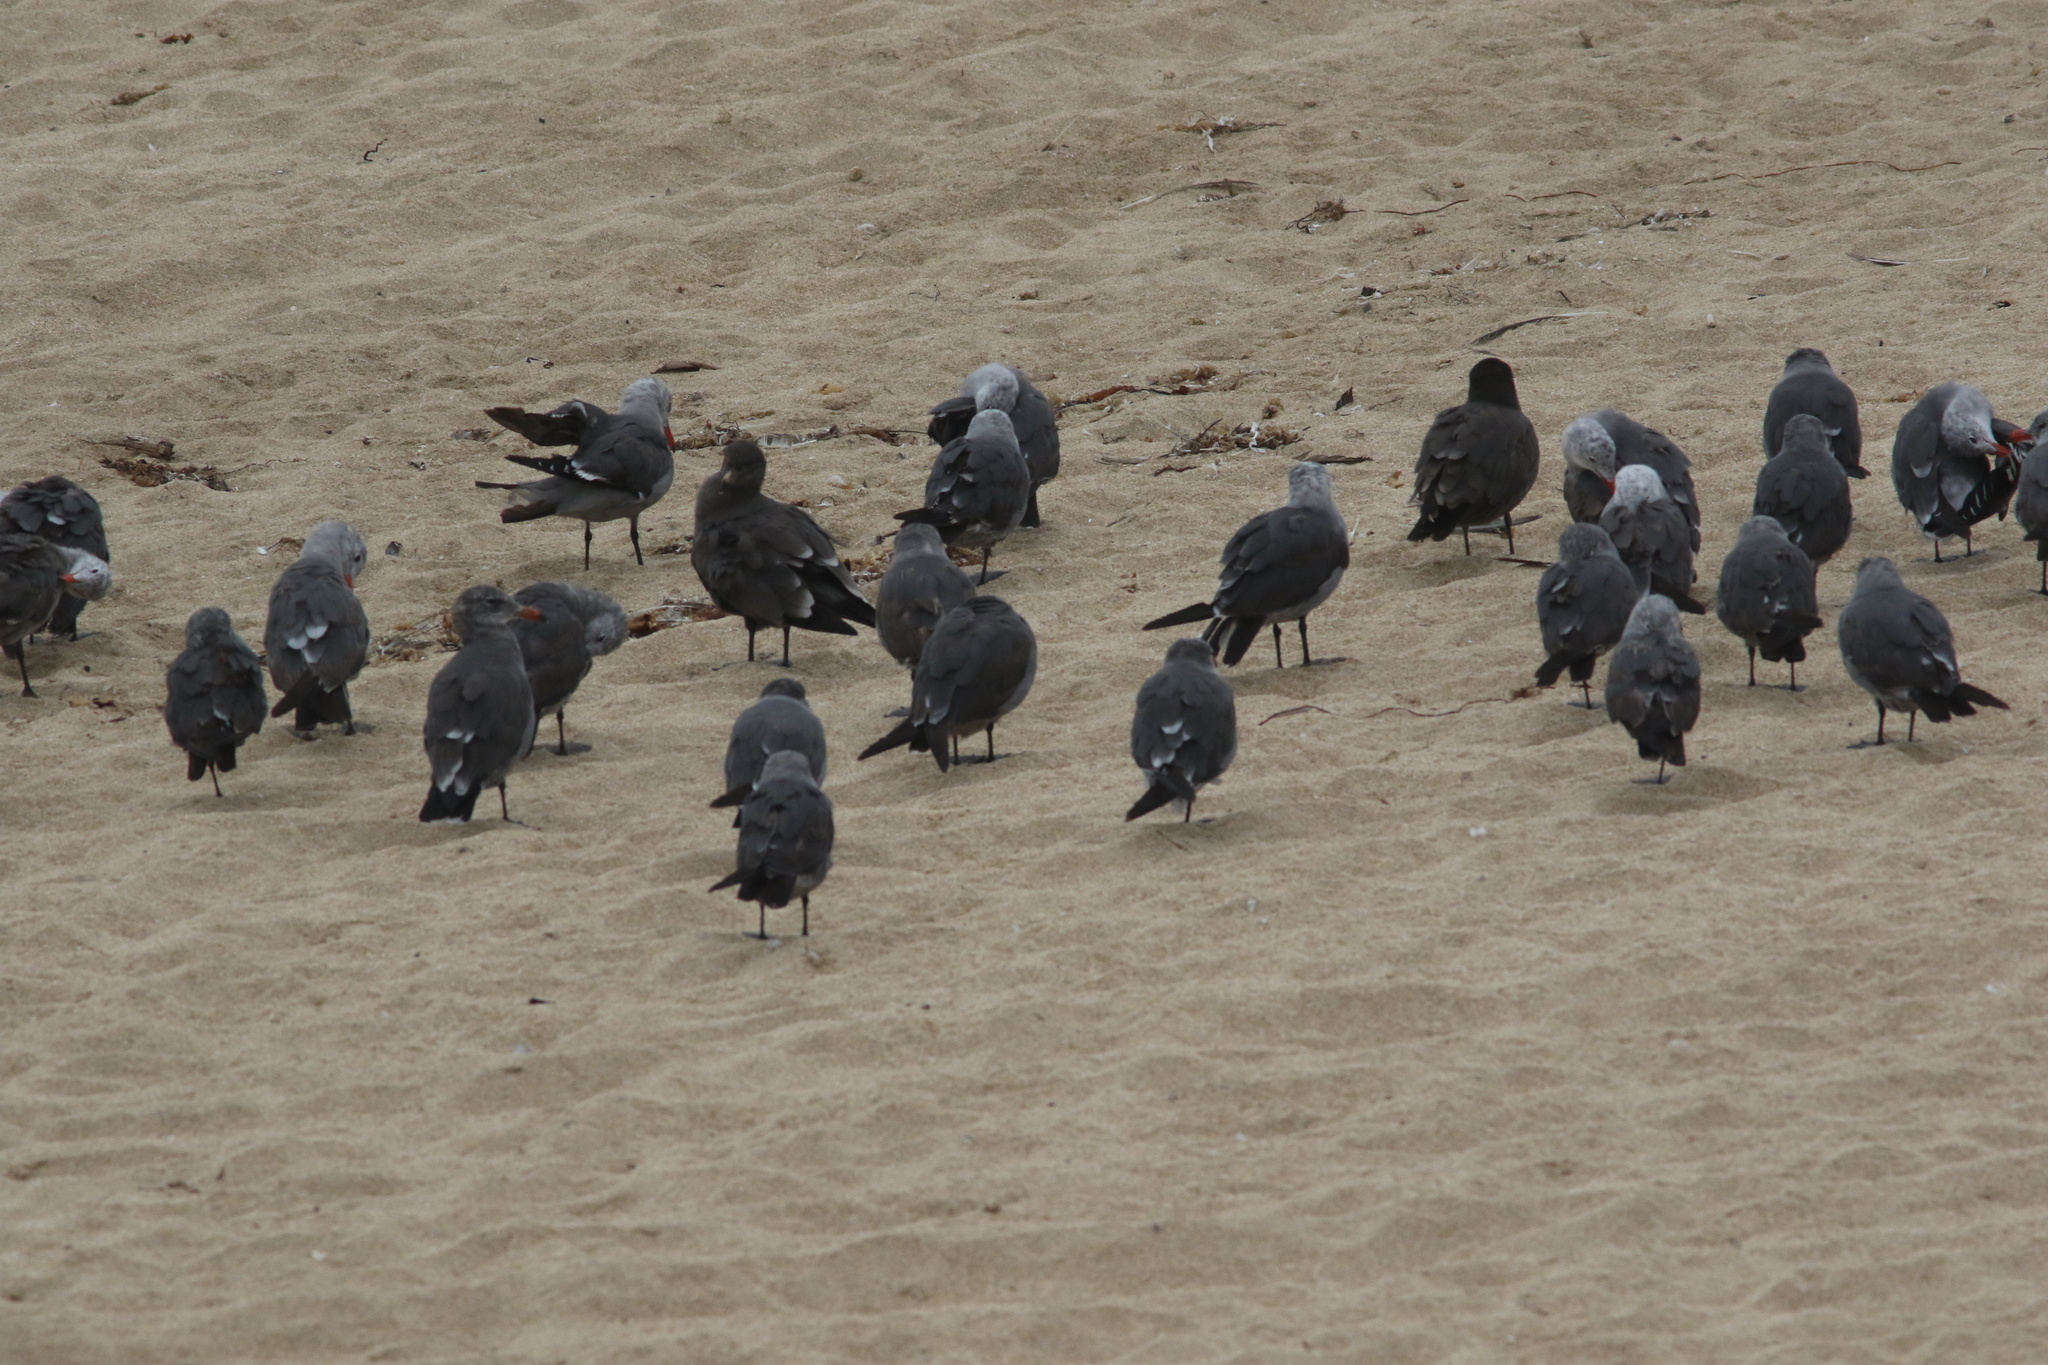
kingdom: Animalia
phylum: Chordata
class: Aves
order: Charadriiformes
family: Laridae
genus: Larus
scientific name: Larus heermanni
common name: Heermann's gull
